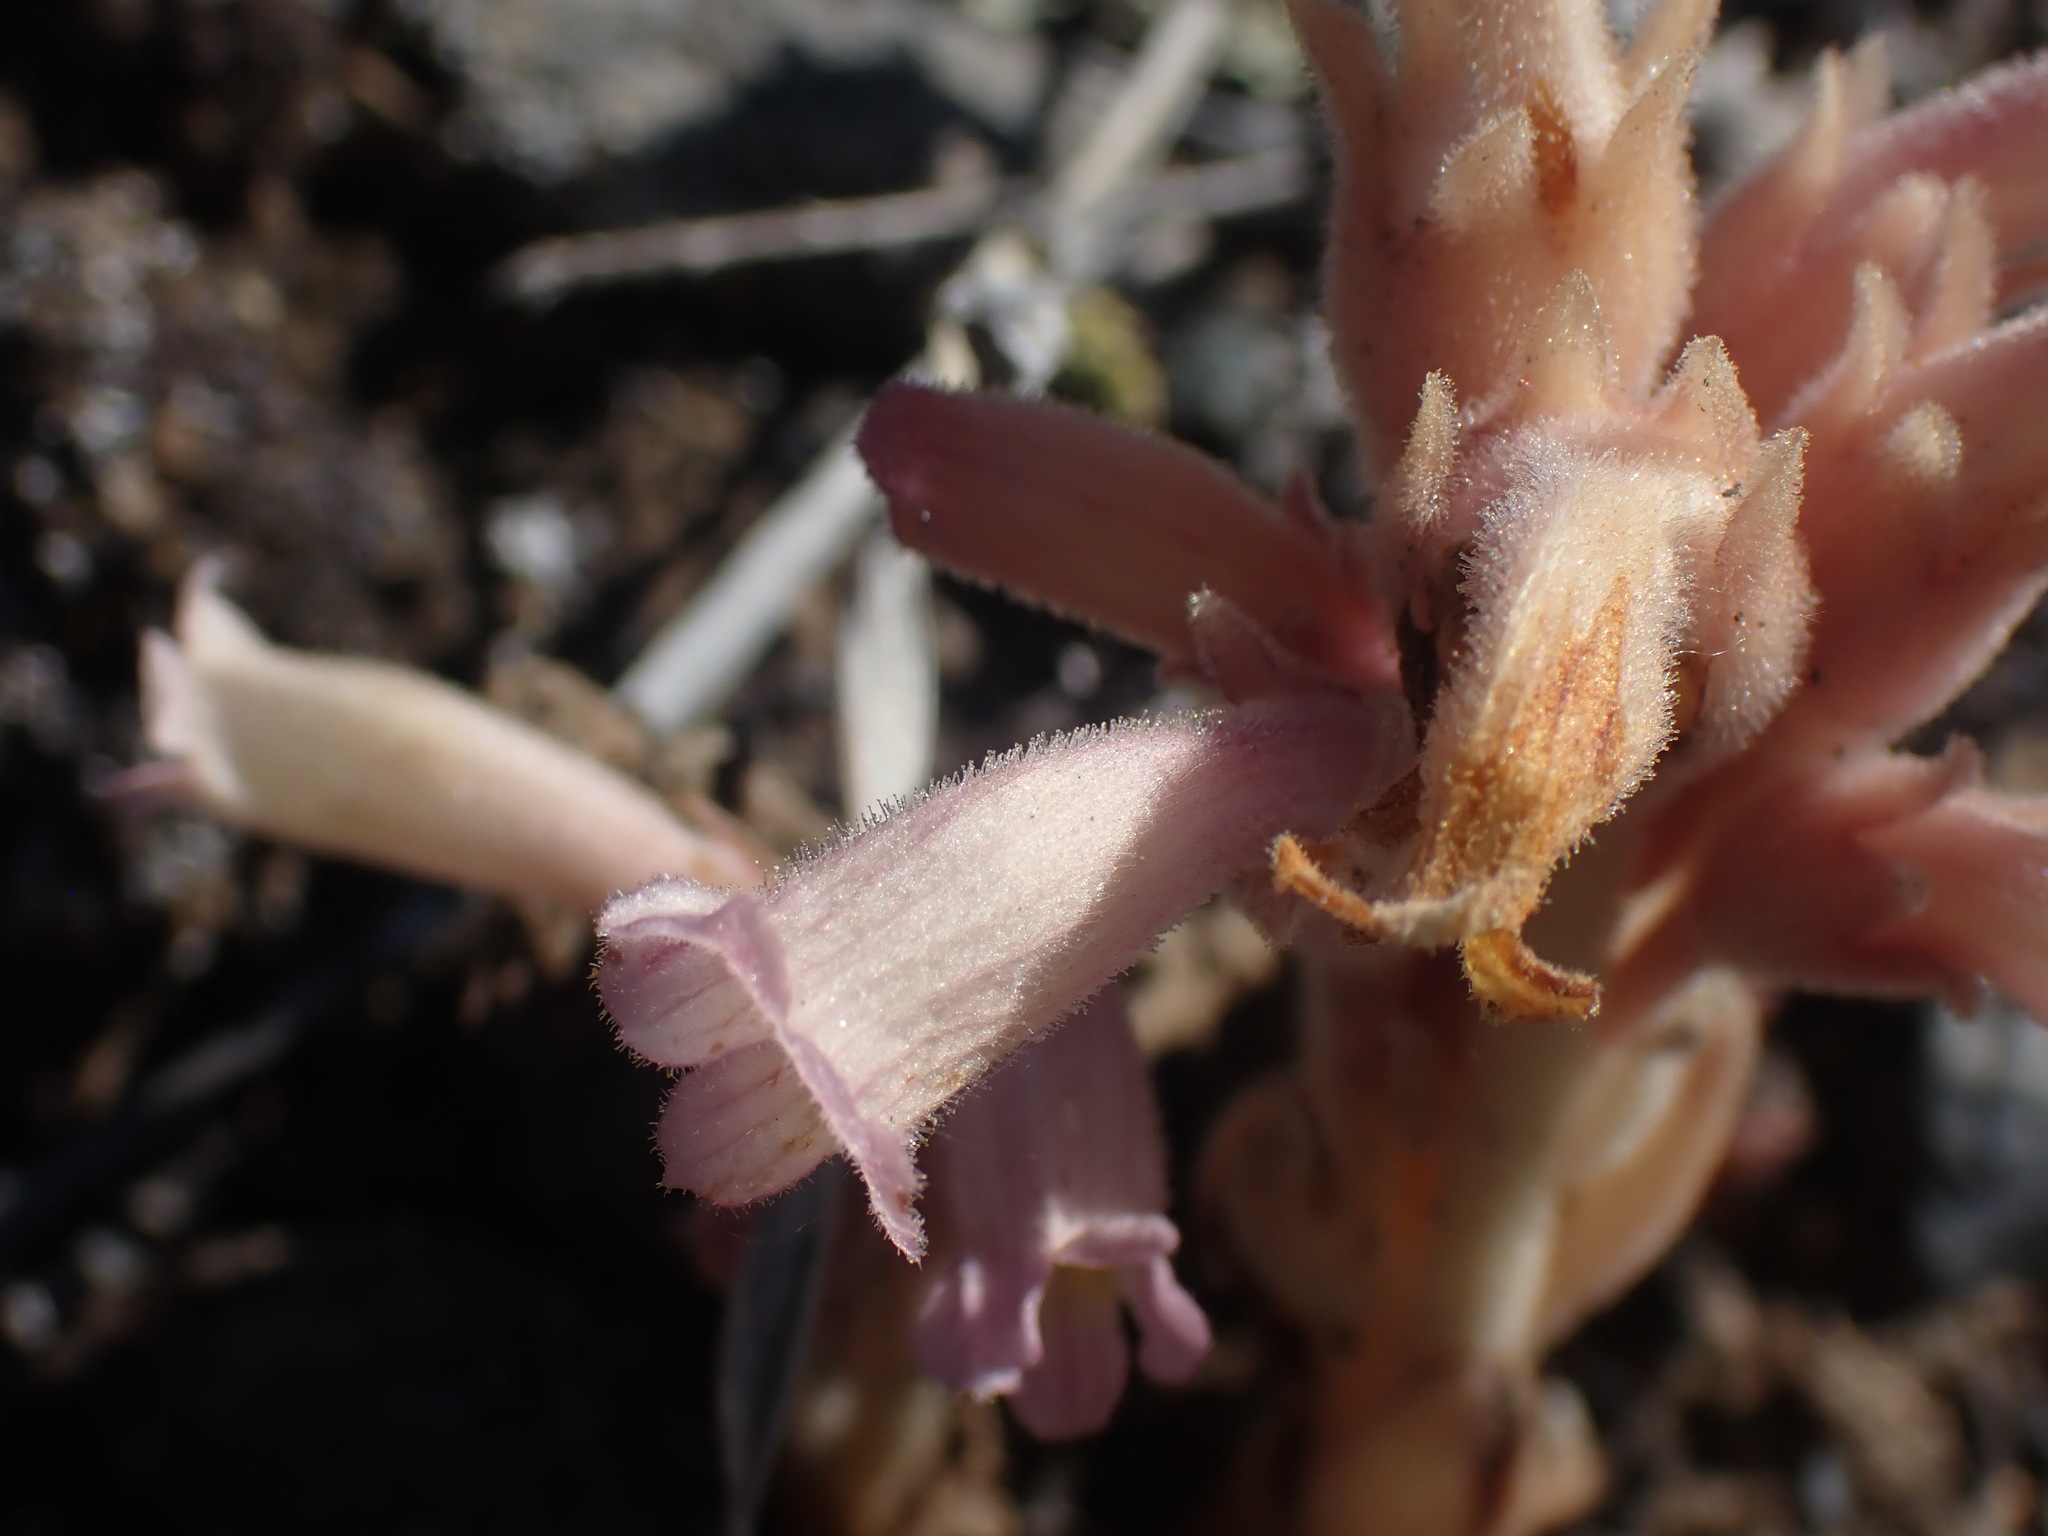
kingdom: Plantae
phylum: Tracheophyta
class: Magnoliopsida
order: Lamiales
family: Orobanchaceae
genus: Aphyllon
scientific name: Aphyllon fasciculatum
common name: Clustered broomrape
